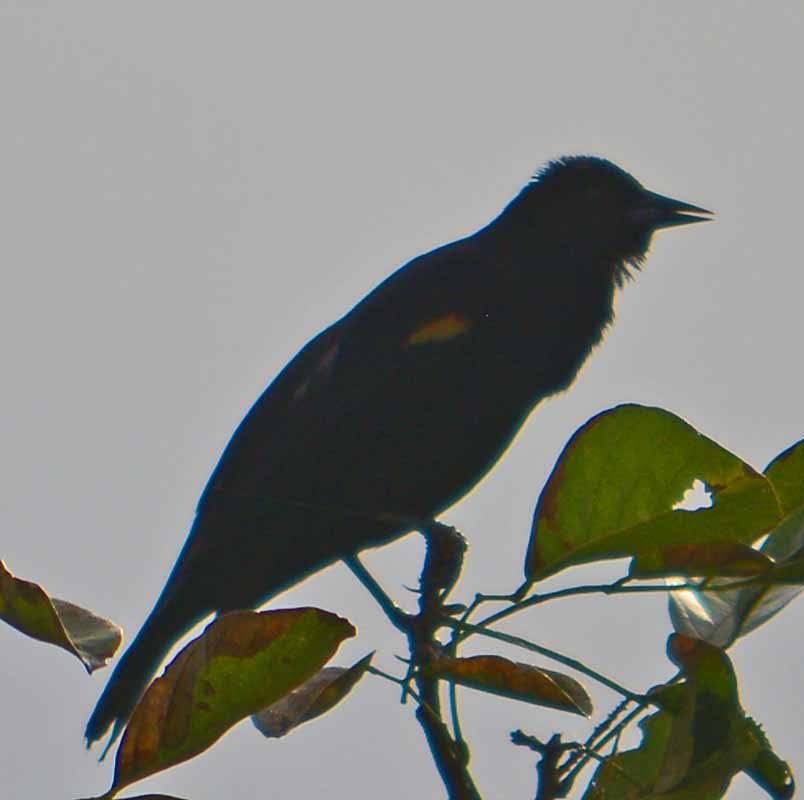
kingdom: Animalia
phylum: Chordata
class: Aves
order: Passeriformes
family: Icteridae
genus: Agelaius
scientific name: Agelaius phoeniceus
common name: Red-winged blackbird
